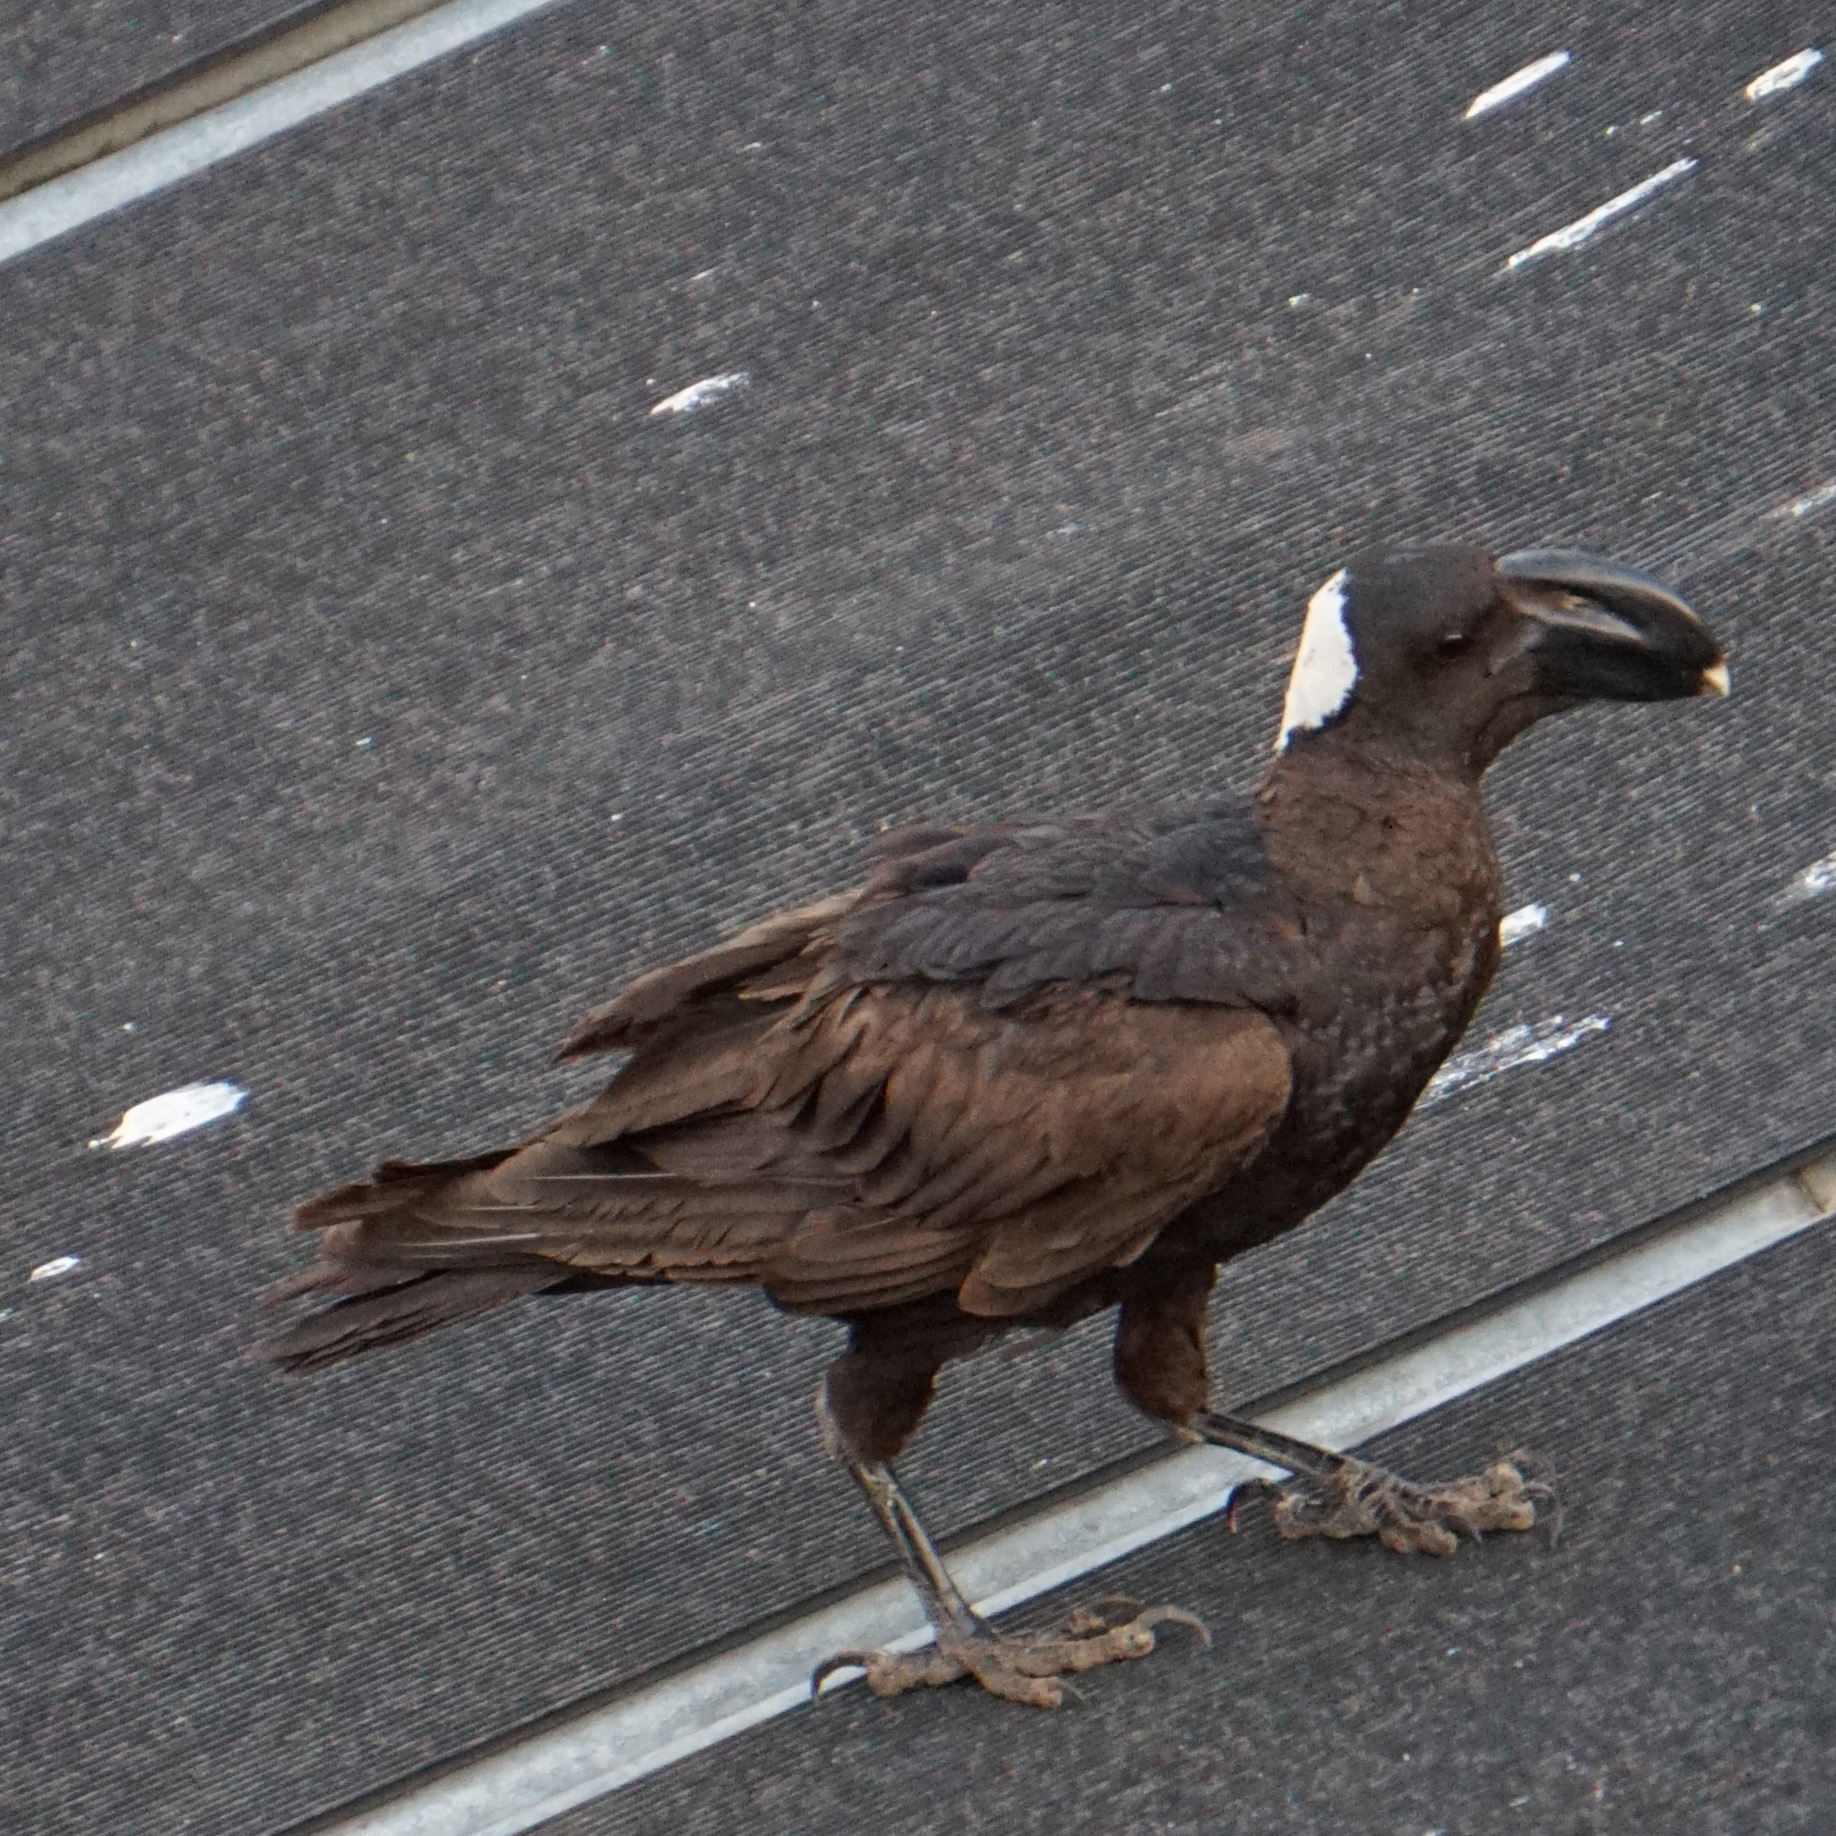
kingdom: Animalia
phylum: Chordata
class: Aves
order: Passeriformes
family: Corvidae
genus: Corvus
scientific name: Corvus crassirostris
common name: Thick-billed raven
